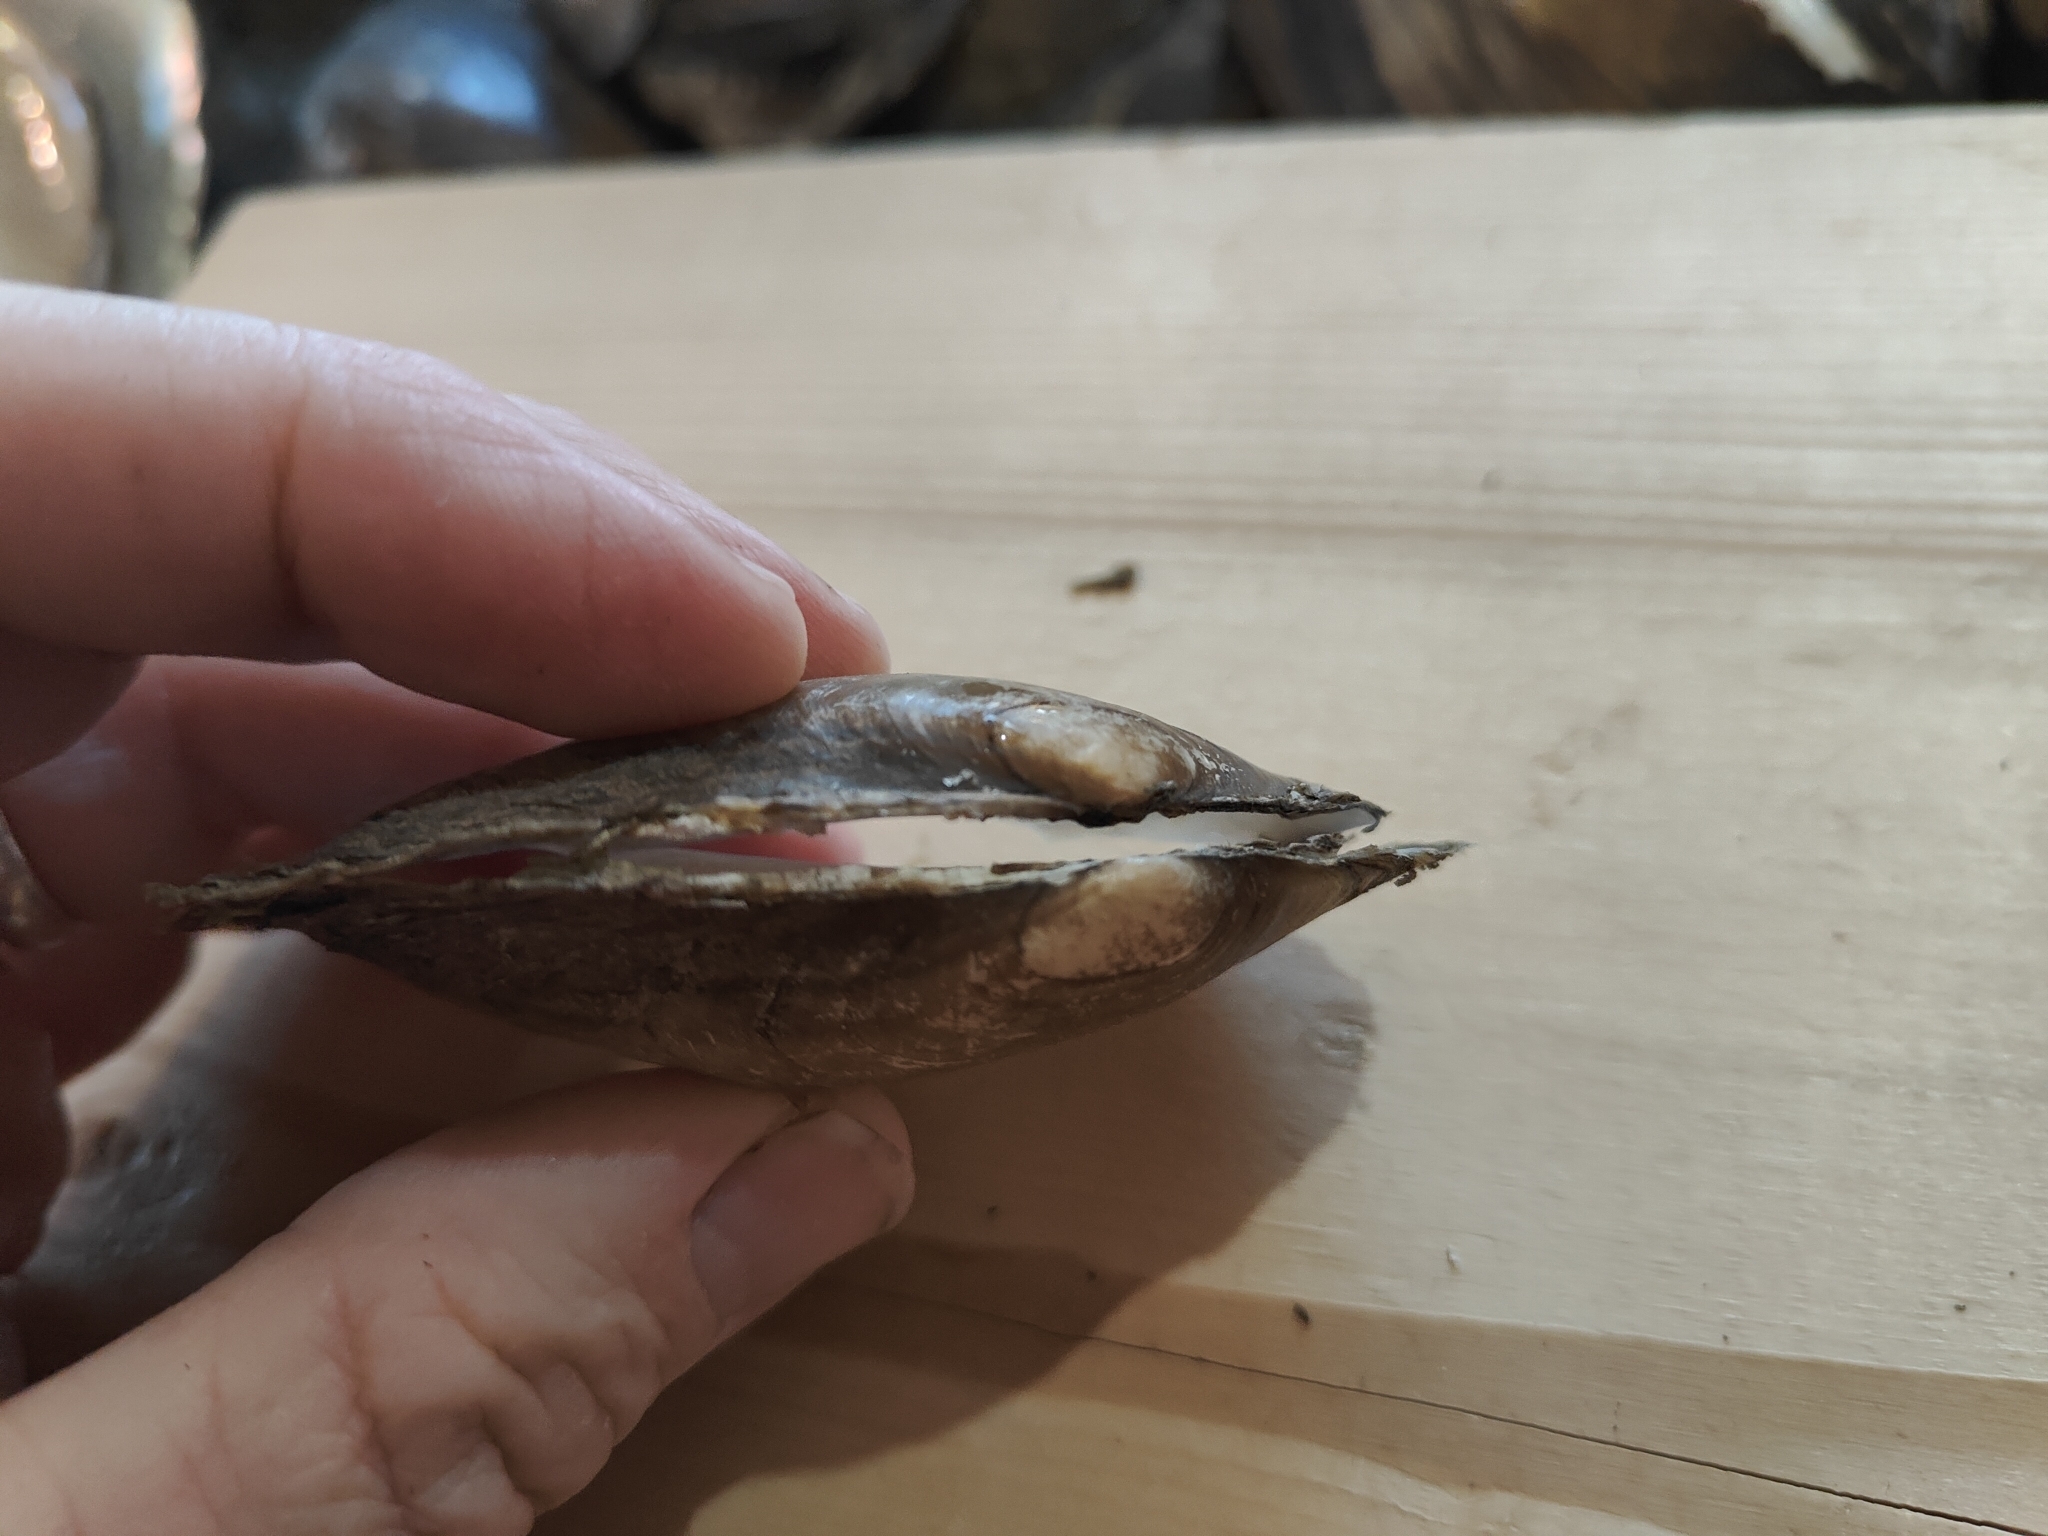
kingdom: Animalia
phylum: Mollusca
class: Bivalvia
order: Unionida
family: Unionidae
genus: Potamilus
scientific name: Potamilus fragilis
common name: Fragile papershell
